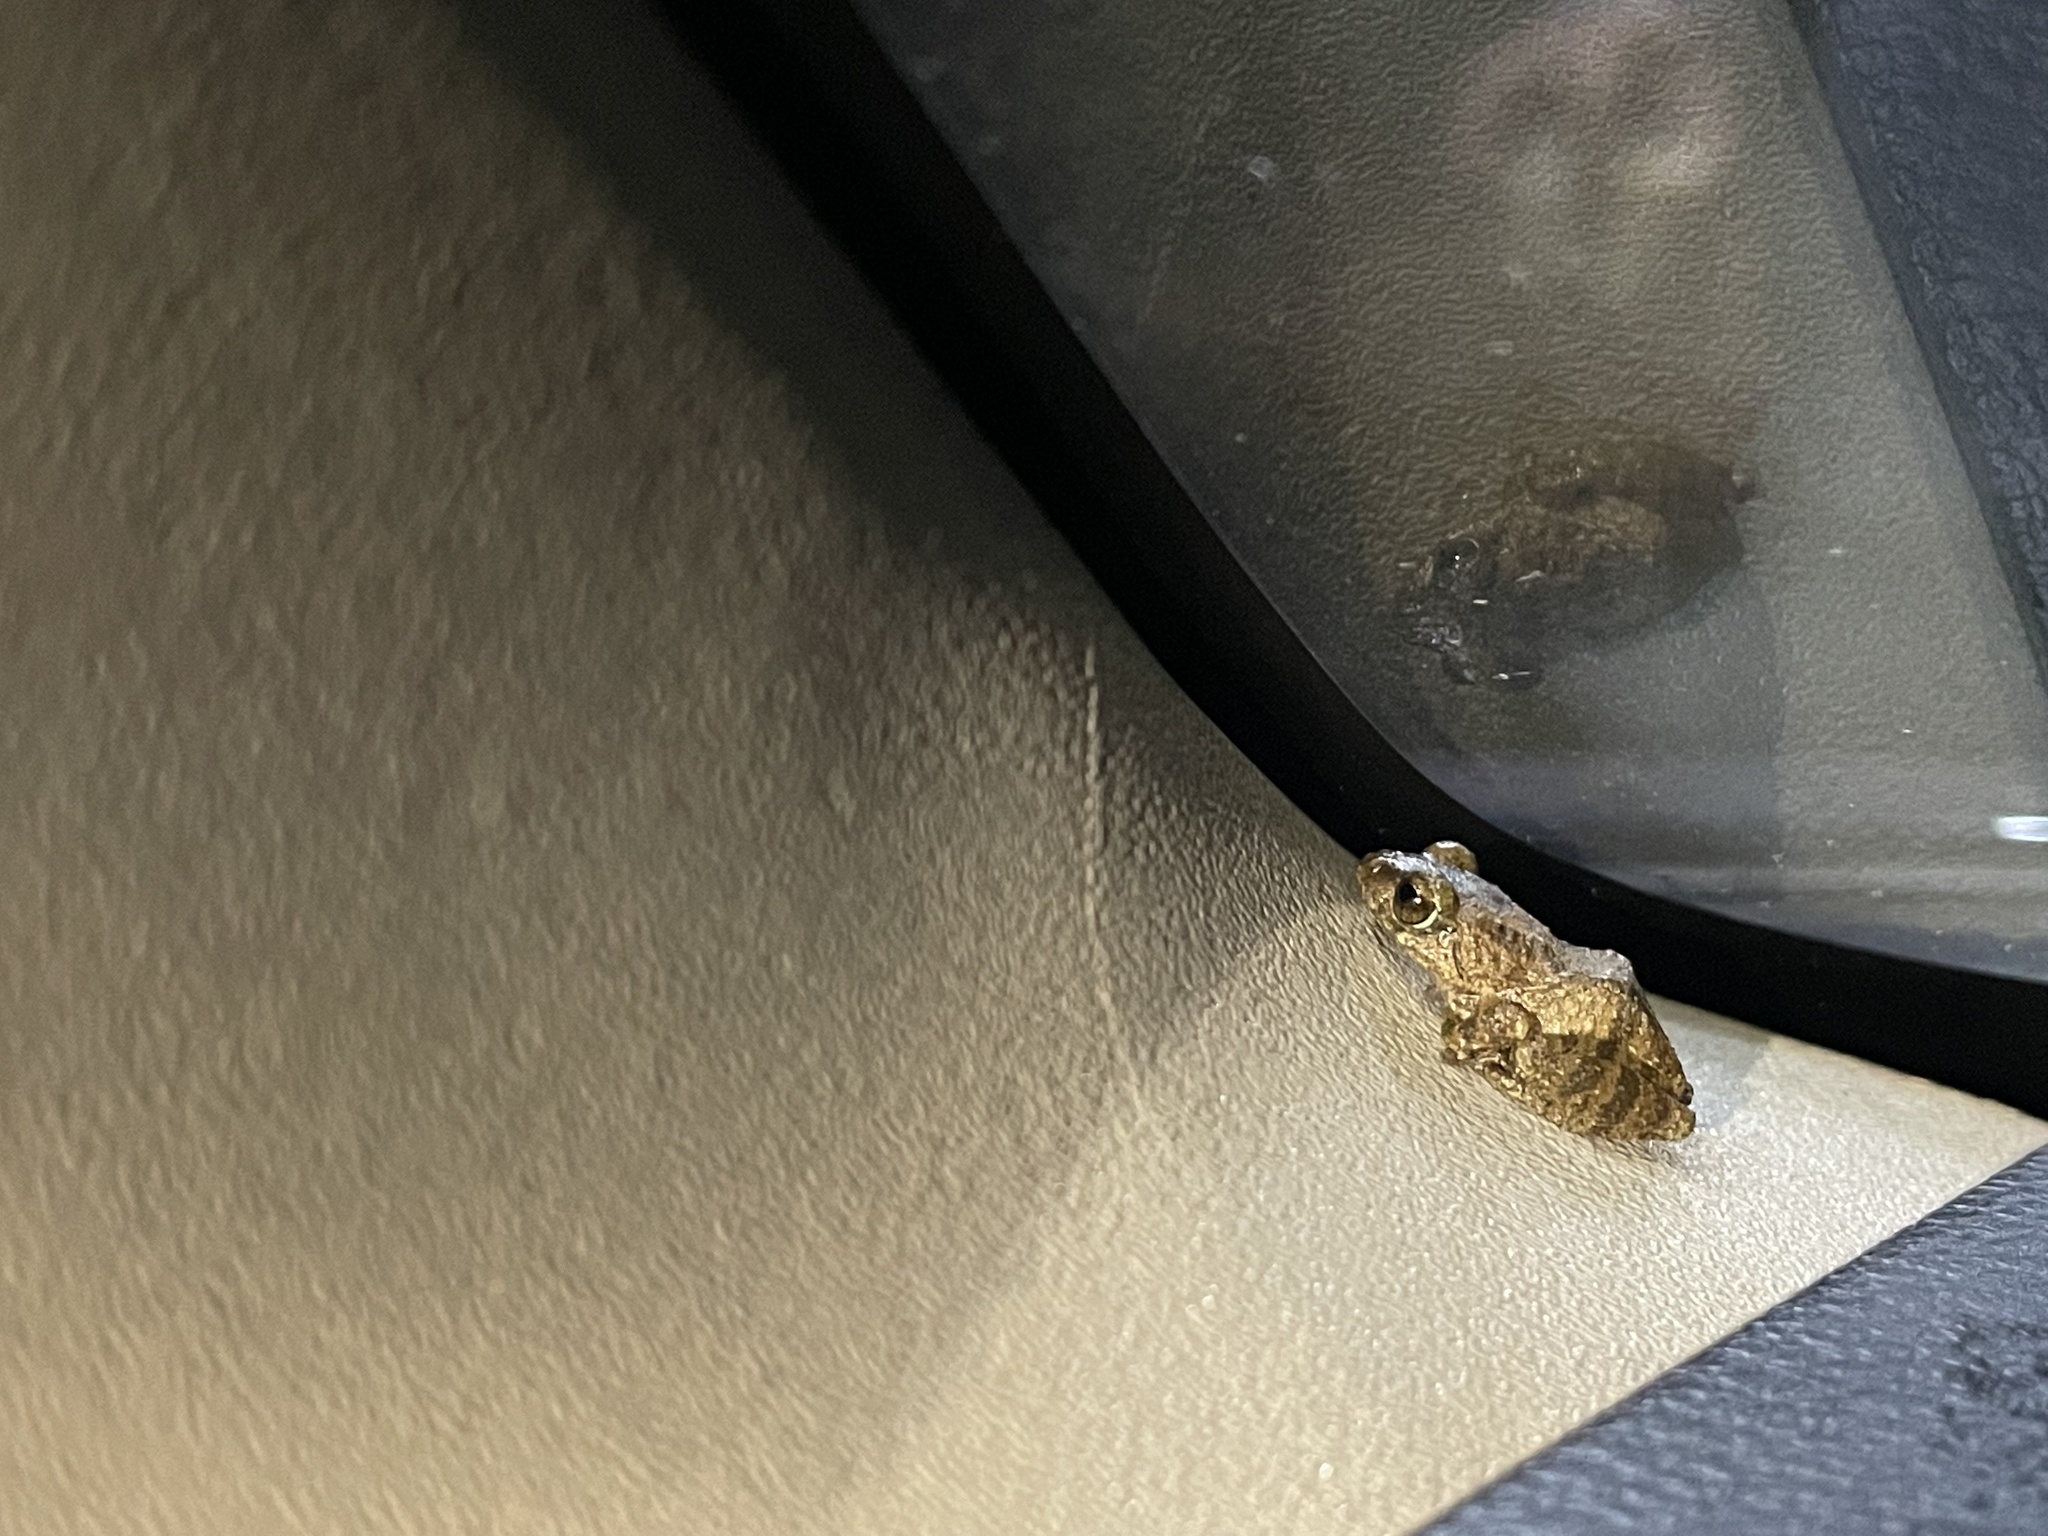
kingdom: Animalia
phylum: Chordata
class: Amphibia
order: Anura
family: Rhacophoridae
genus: Raorchestes
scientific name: Raorchestes bombayensis
